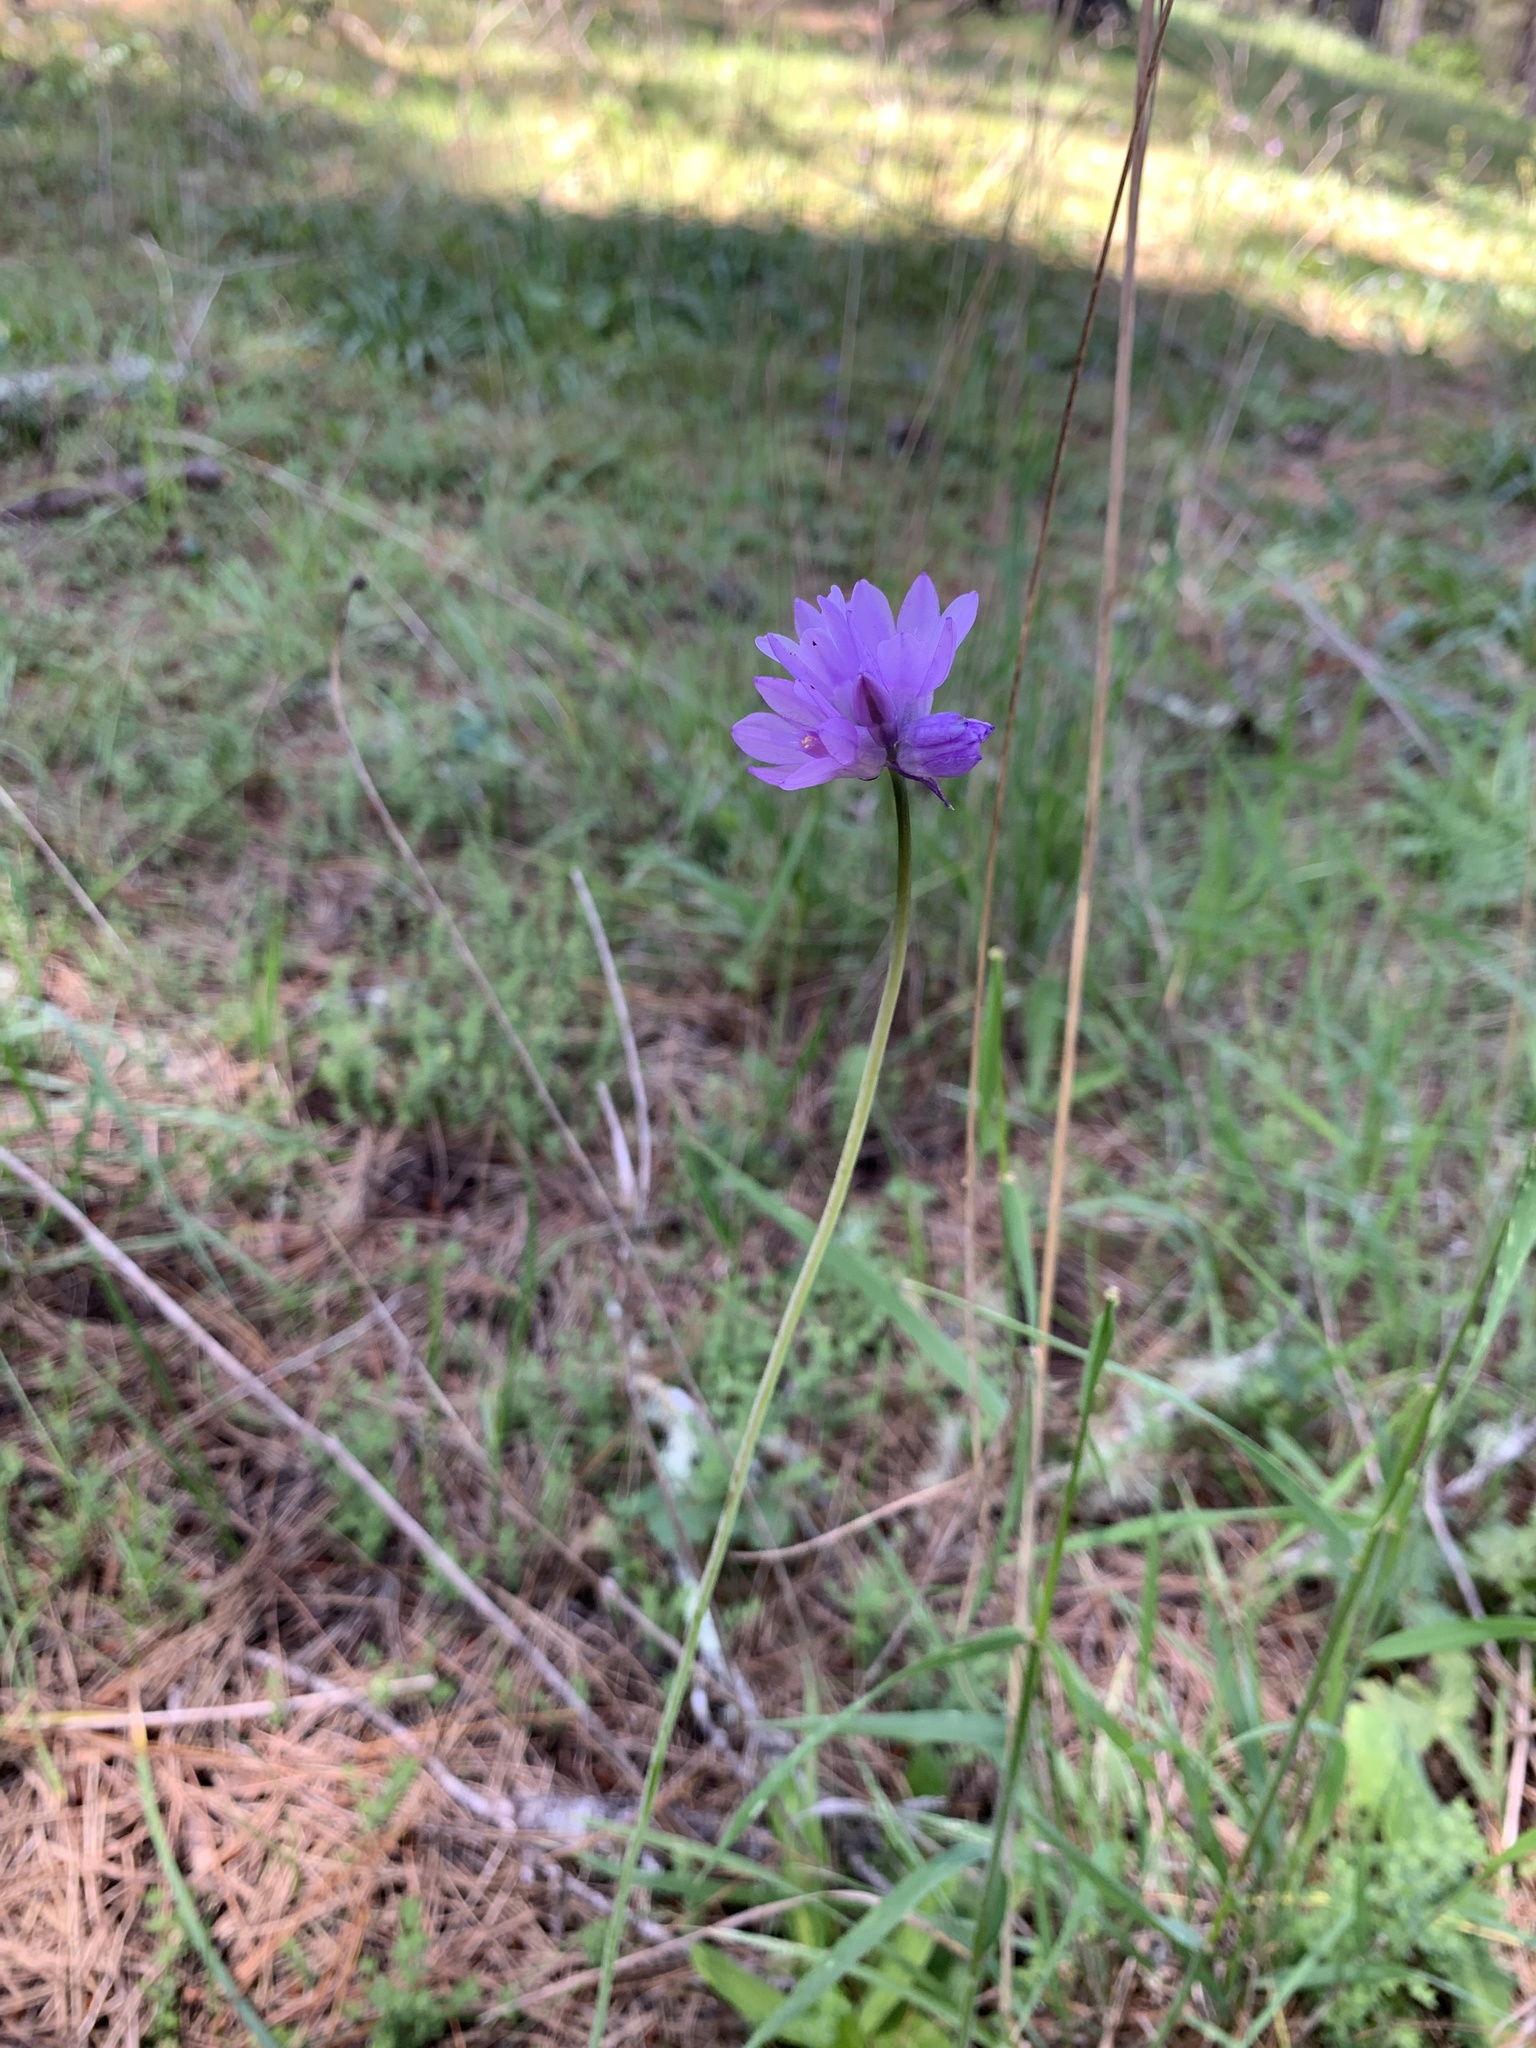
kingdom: Plantae
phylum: Tracheophyta
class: Liliopsida
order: Asparagales
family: Asparagaceae
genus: Dipterostemon
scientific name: Dipterostemon capitatus
